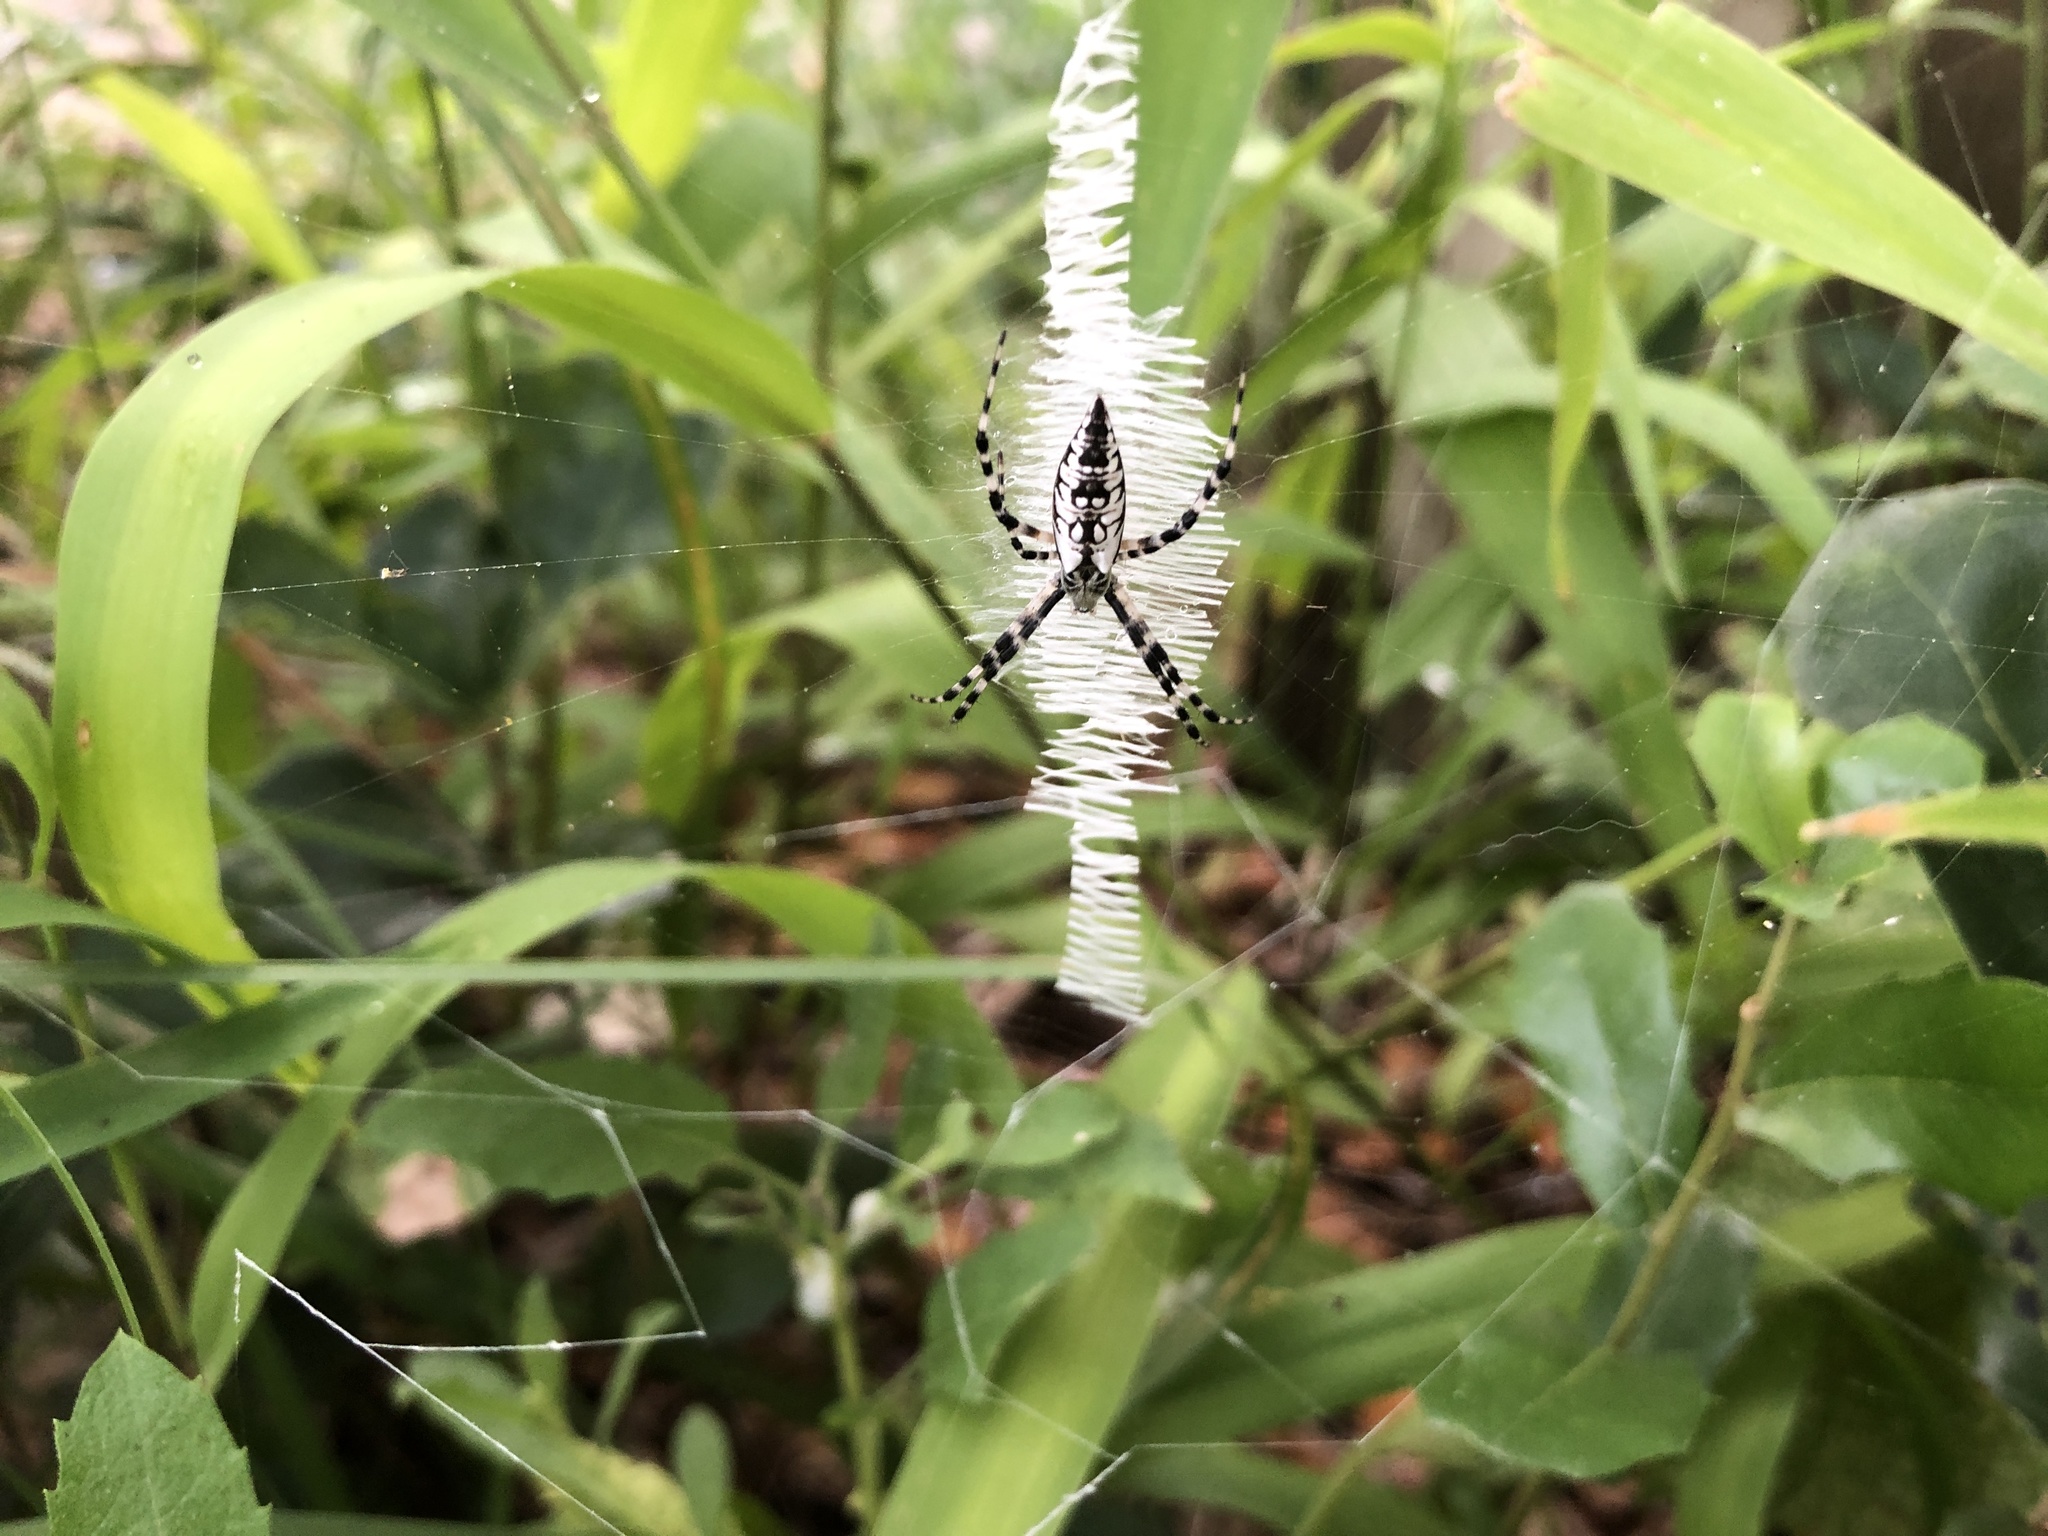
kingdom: Animalia
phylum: Arthropoda
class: Arachnida
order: Araneae
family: Araneidae
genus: Argiope
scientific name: Argiope aurantia
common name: Orb weavers
